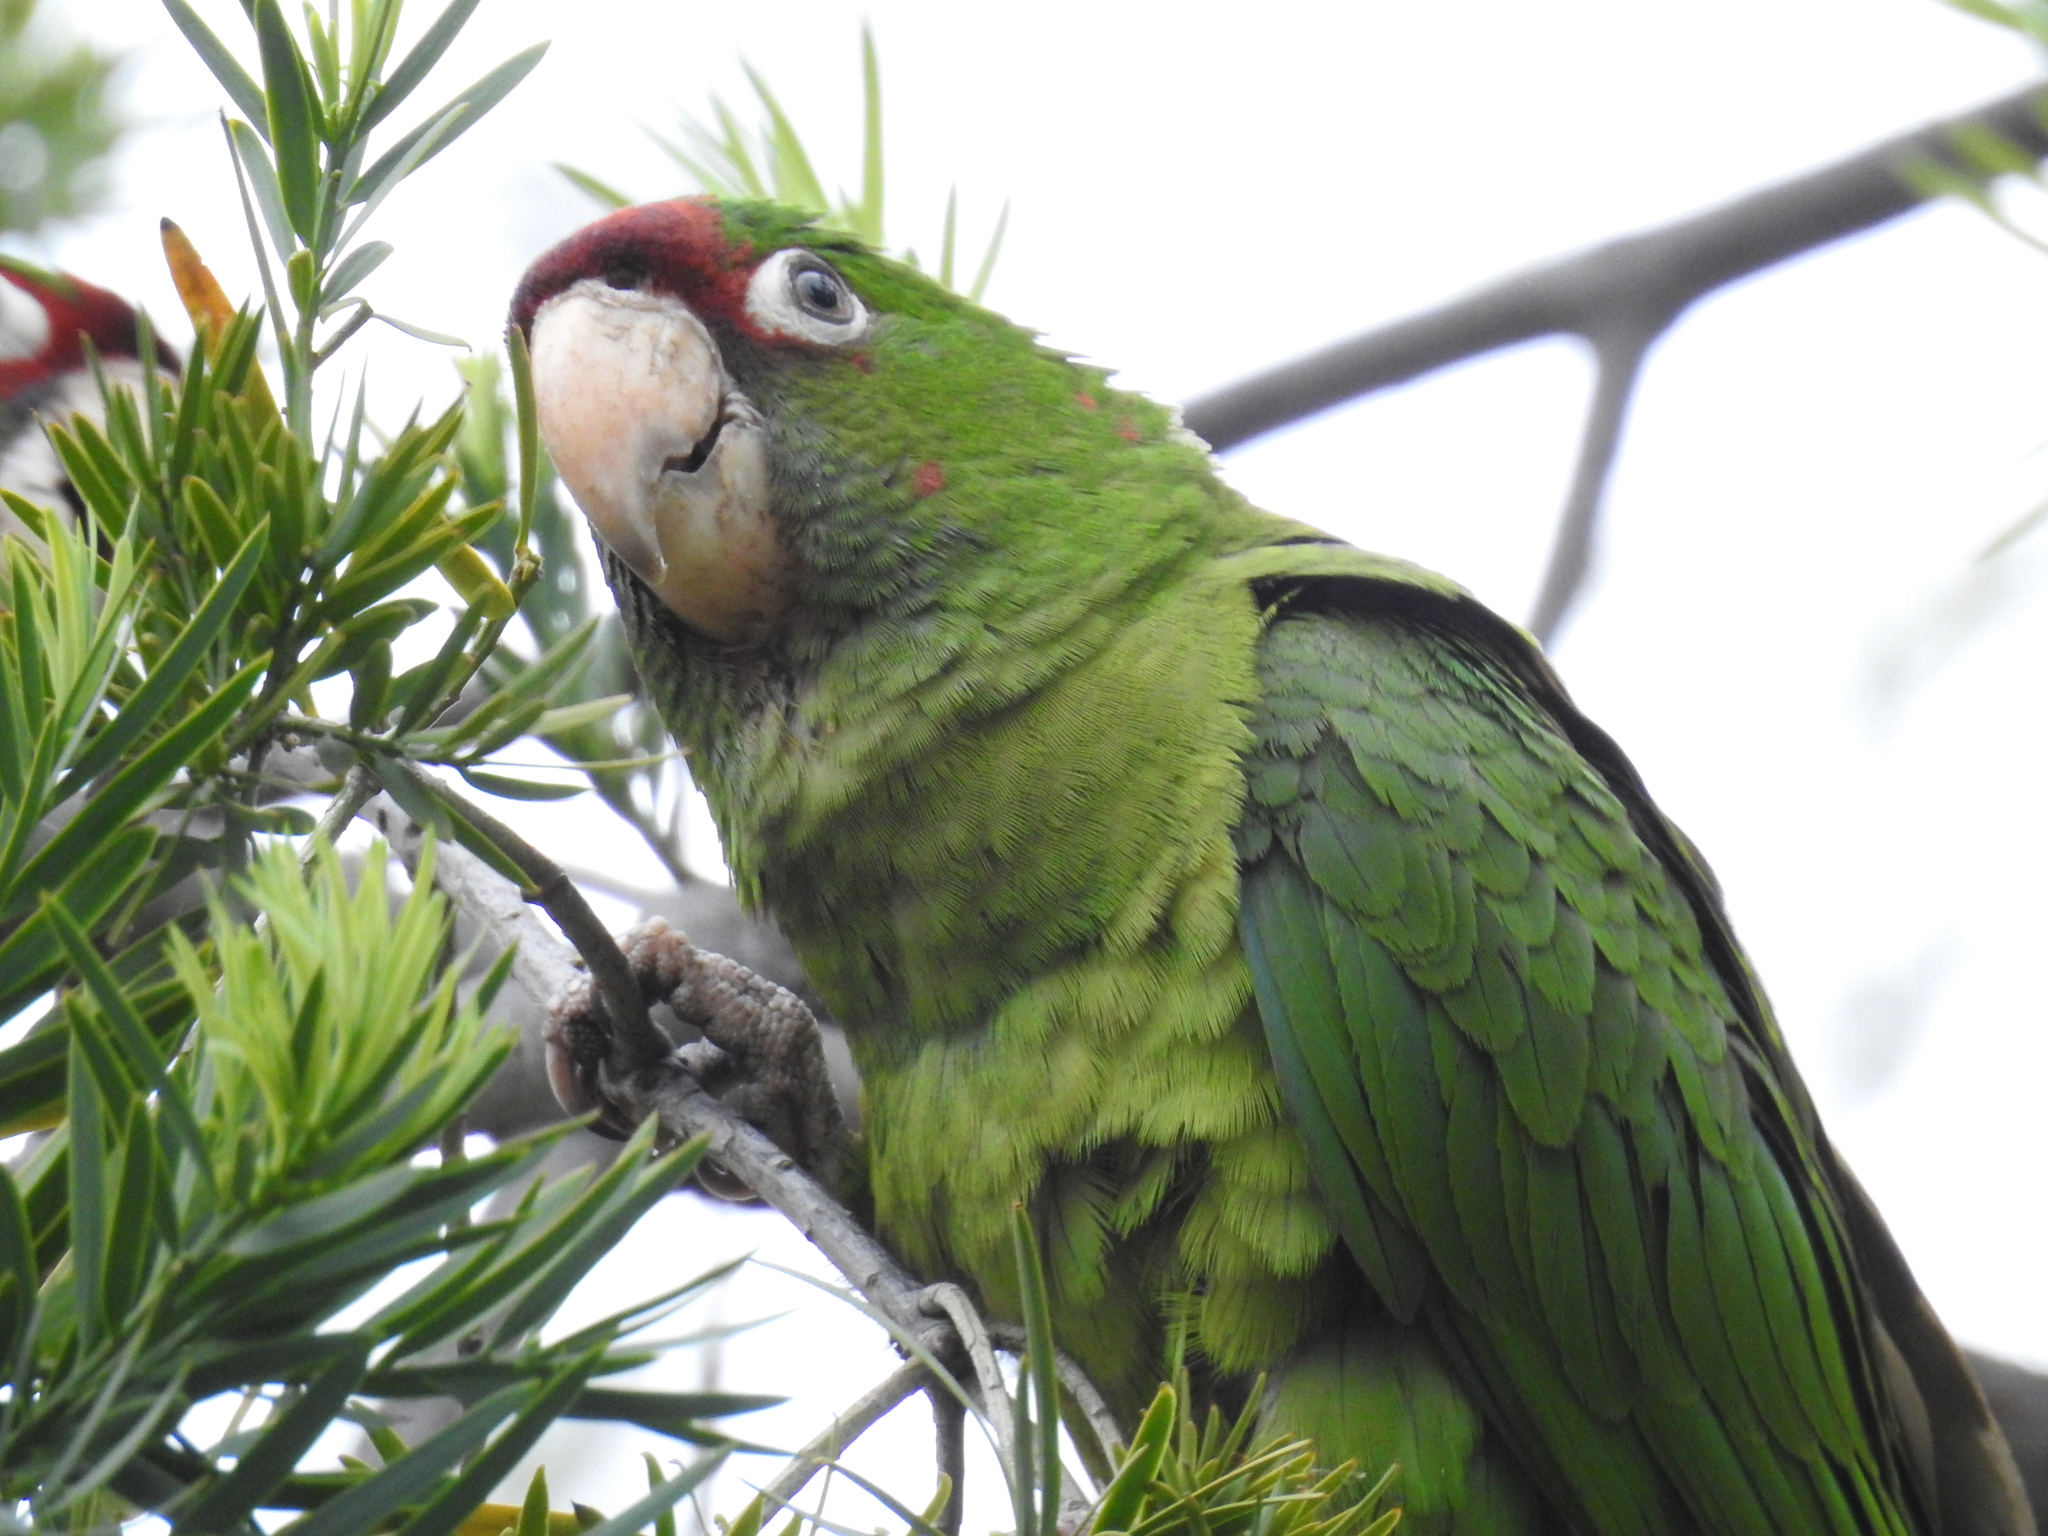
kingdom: Animalia
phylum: Chordata
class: Aves
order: Psittaciformes
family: Psittacidae
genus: Aratinga
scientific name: Aratinga mitrata
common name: Mitred parakeet
